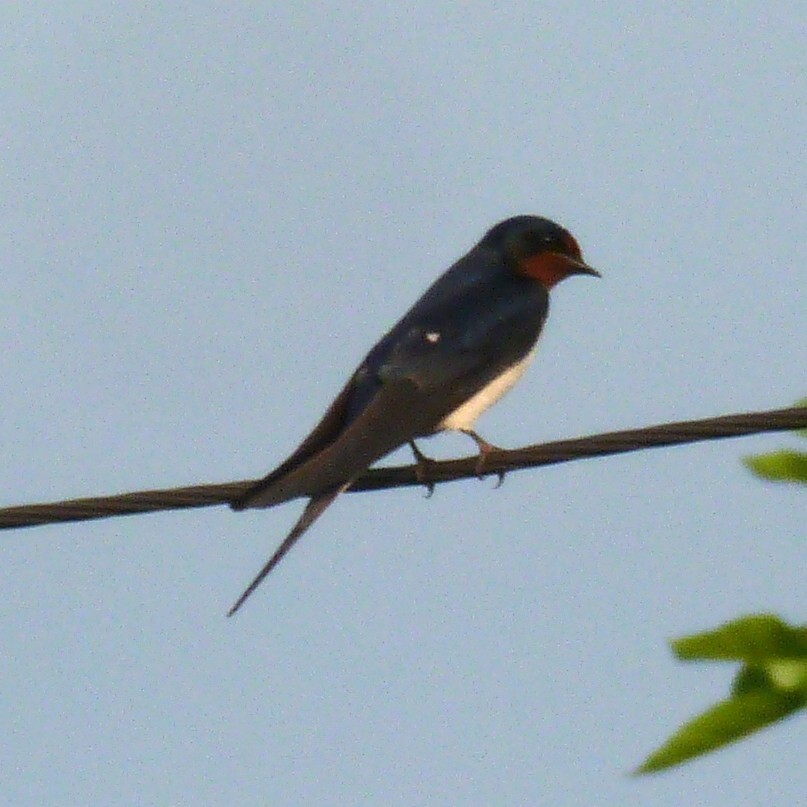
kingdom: Animalia
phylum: Chordata
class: Aves
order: Passeriformes
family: Hirundinidae
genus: Hirundo
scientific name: Hirundo rustica
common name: Barn swallow
